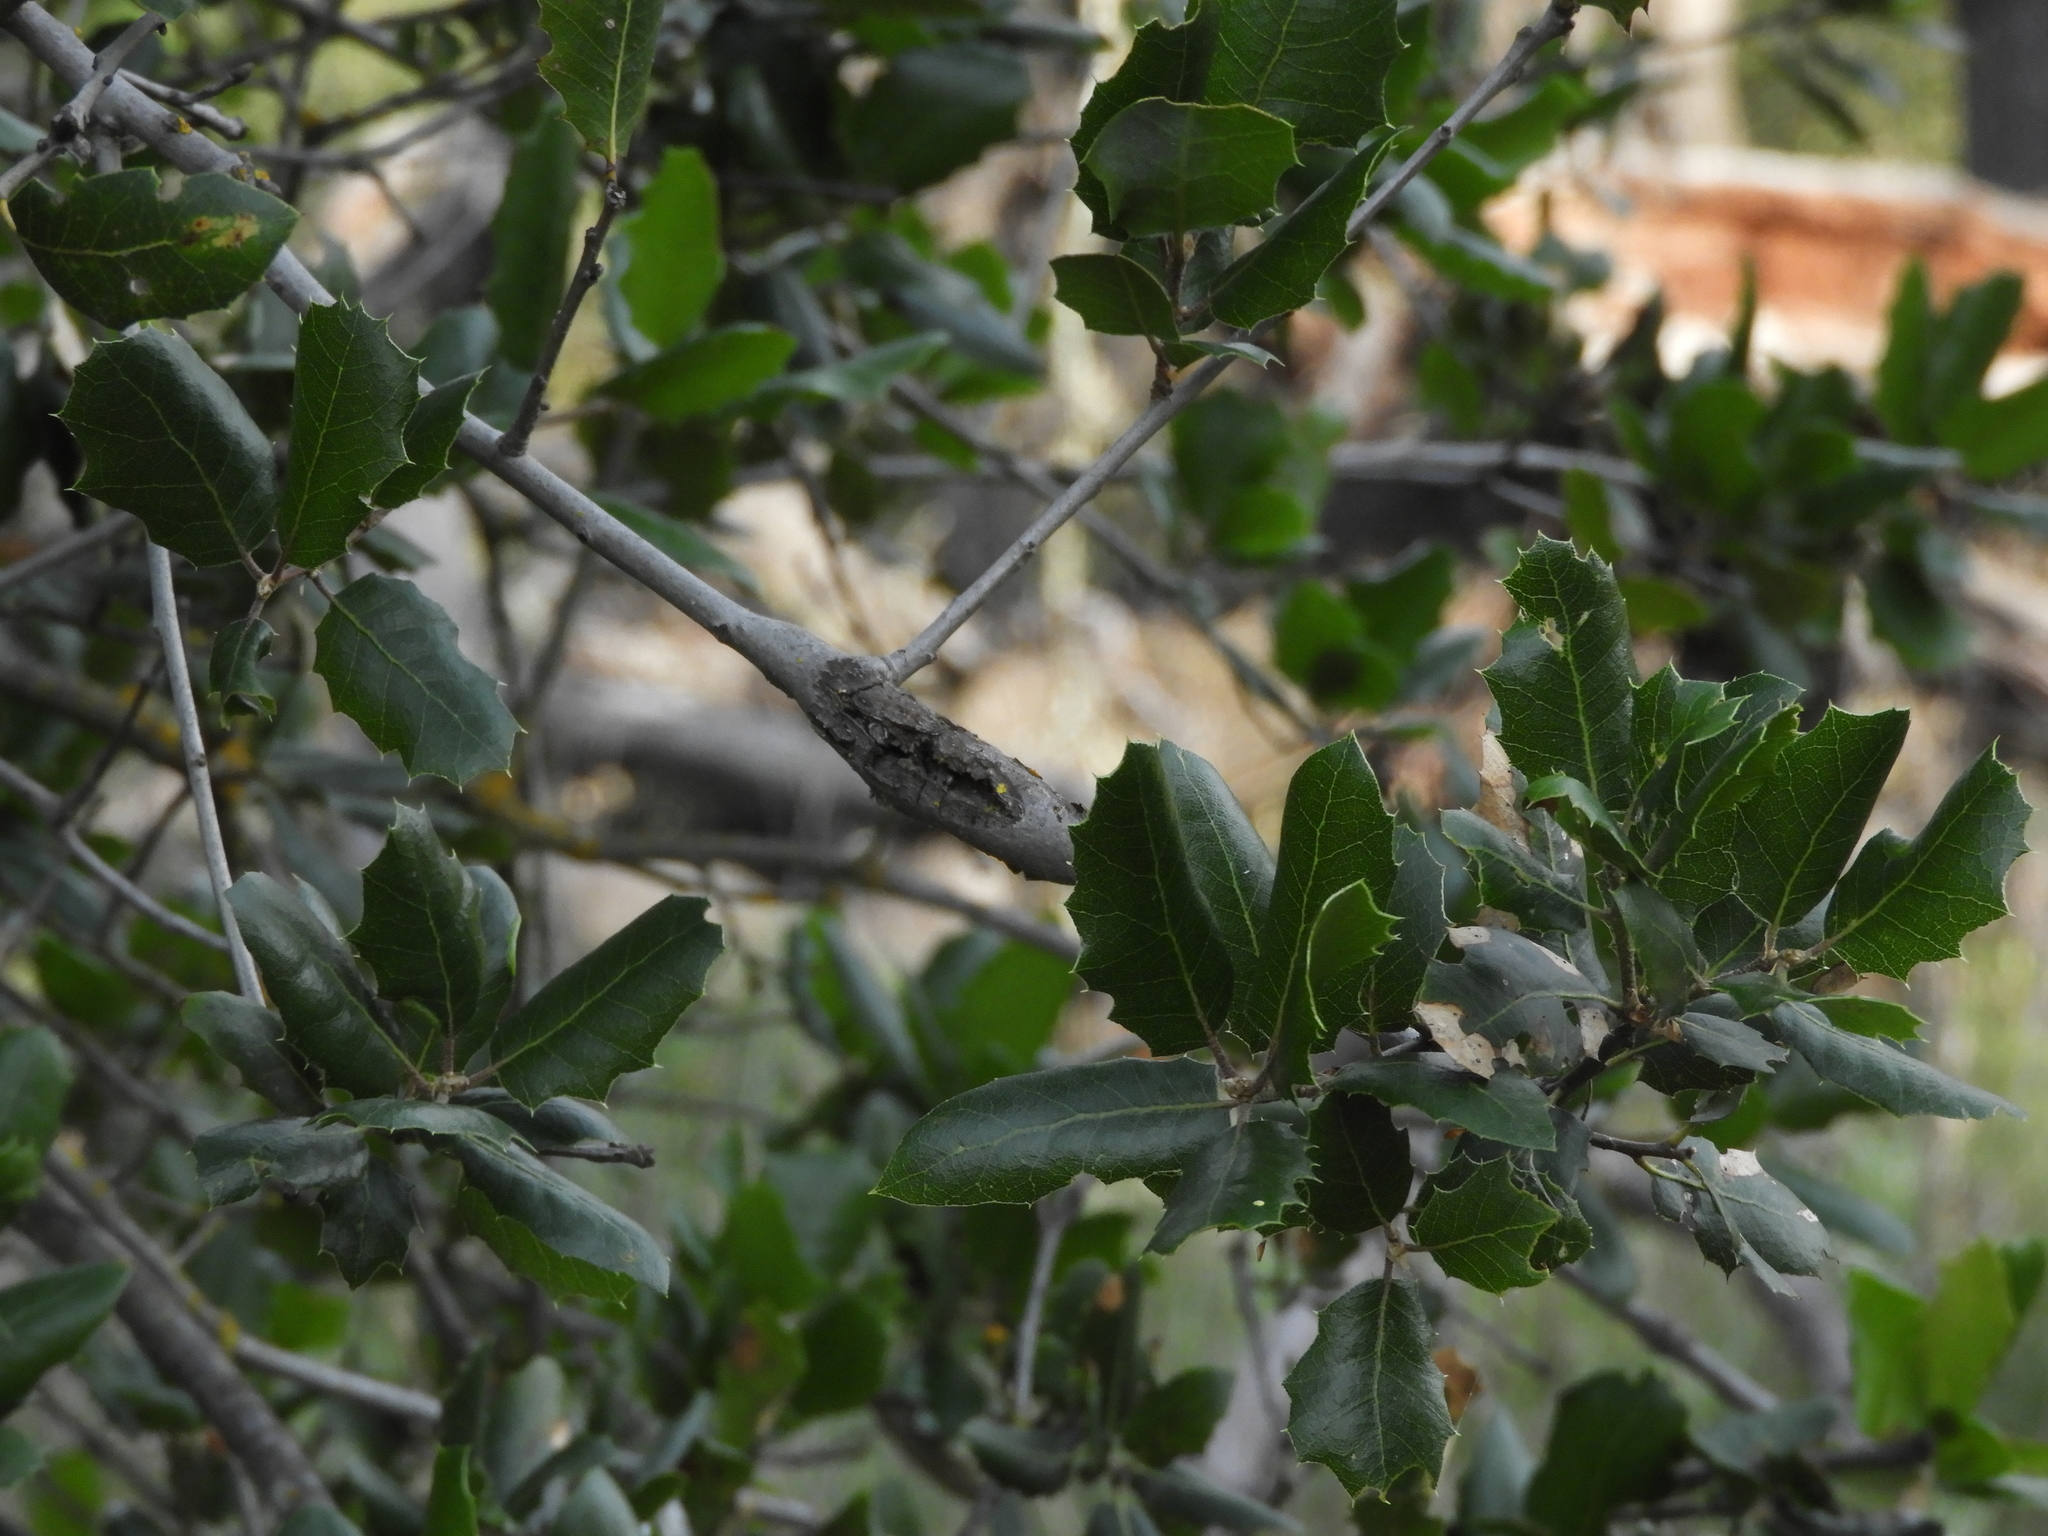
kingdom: Animalia
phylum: Arthropoda
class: Insecta
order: Hymenoptera
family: Cynipidae
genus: Callirhytis
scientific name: Callirhytis
